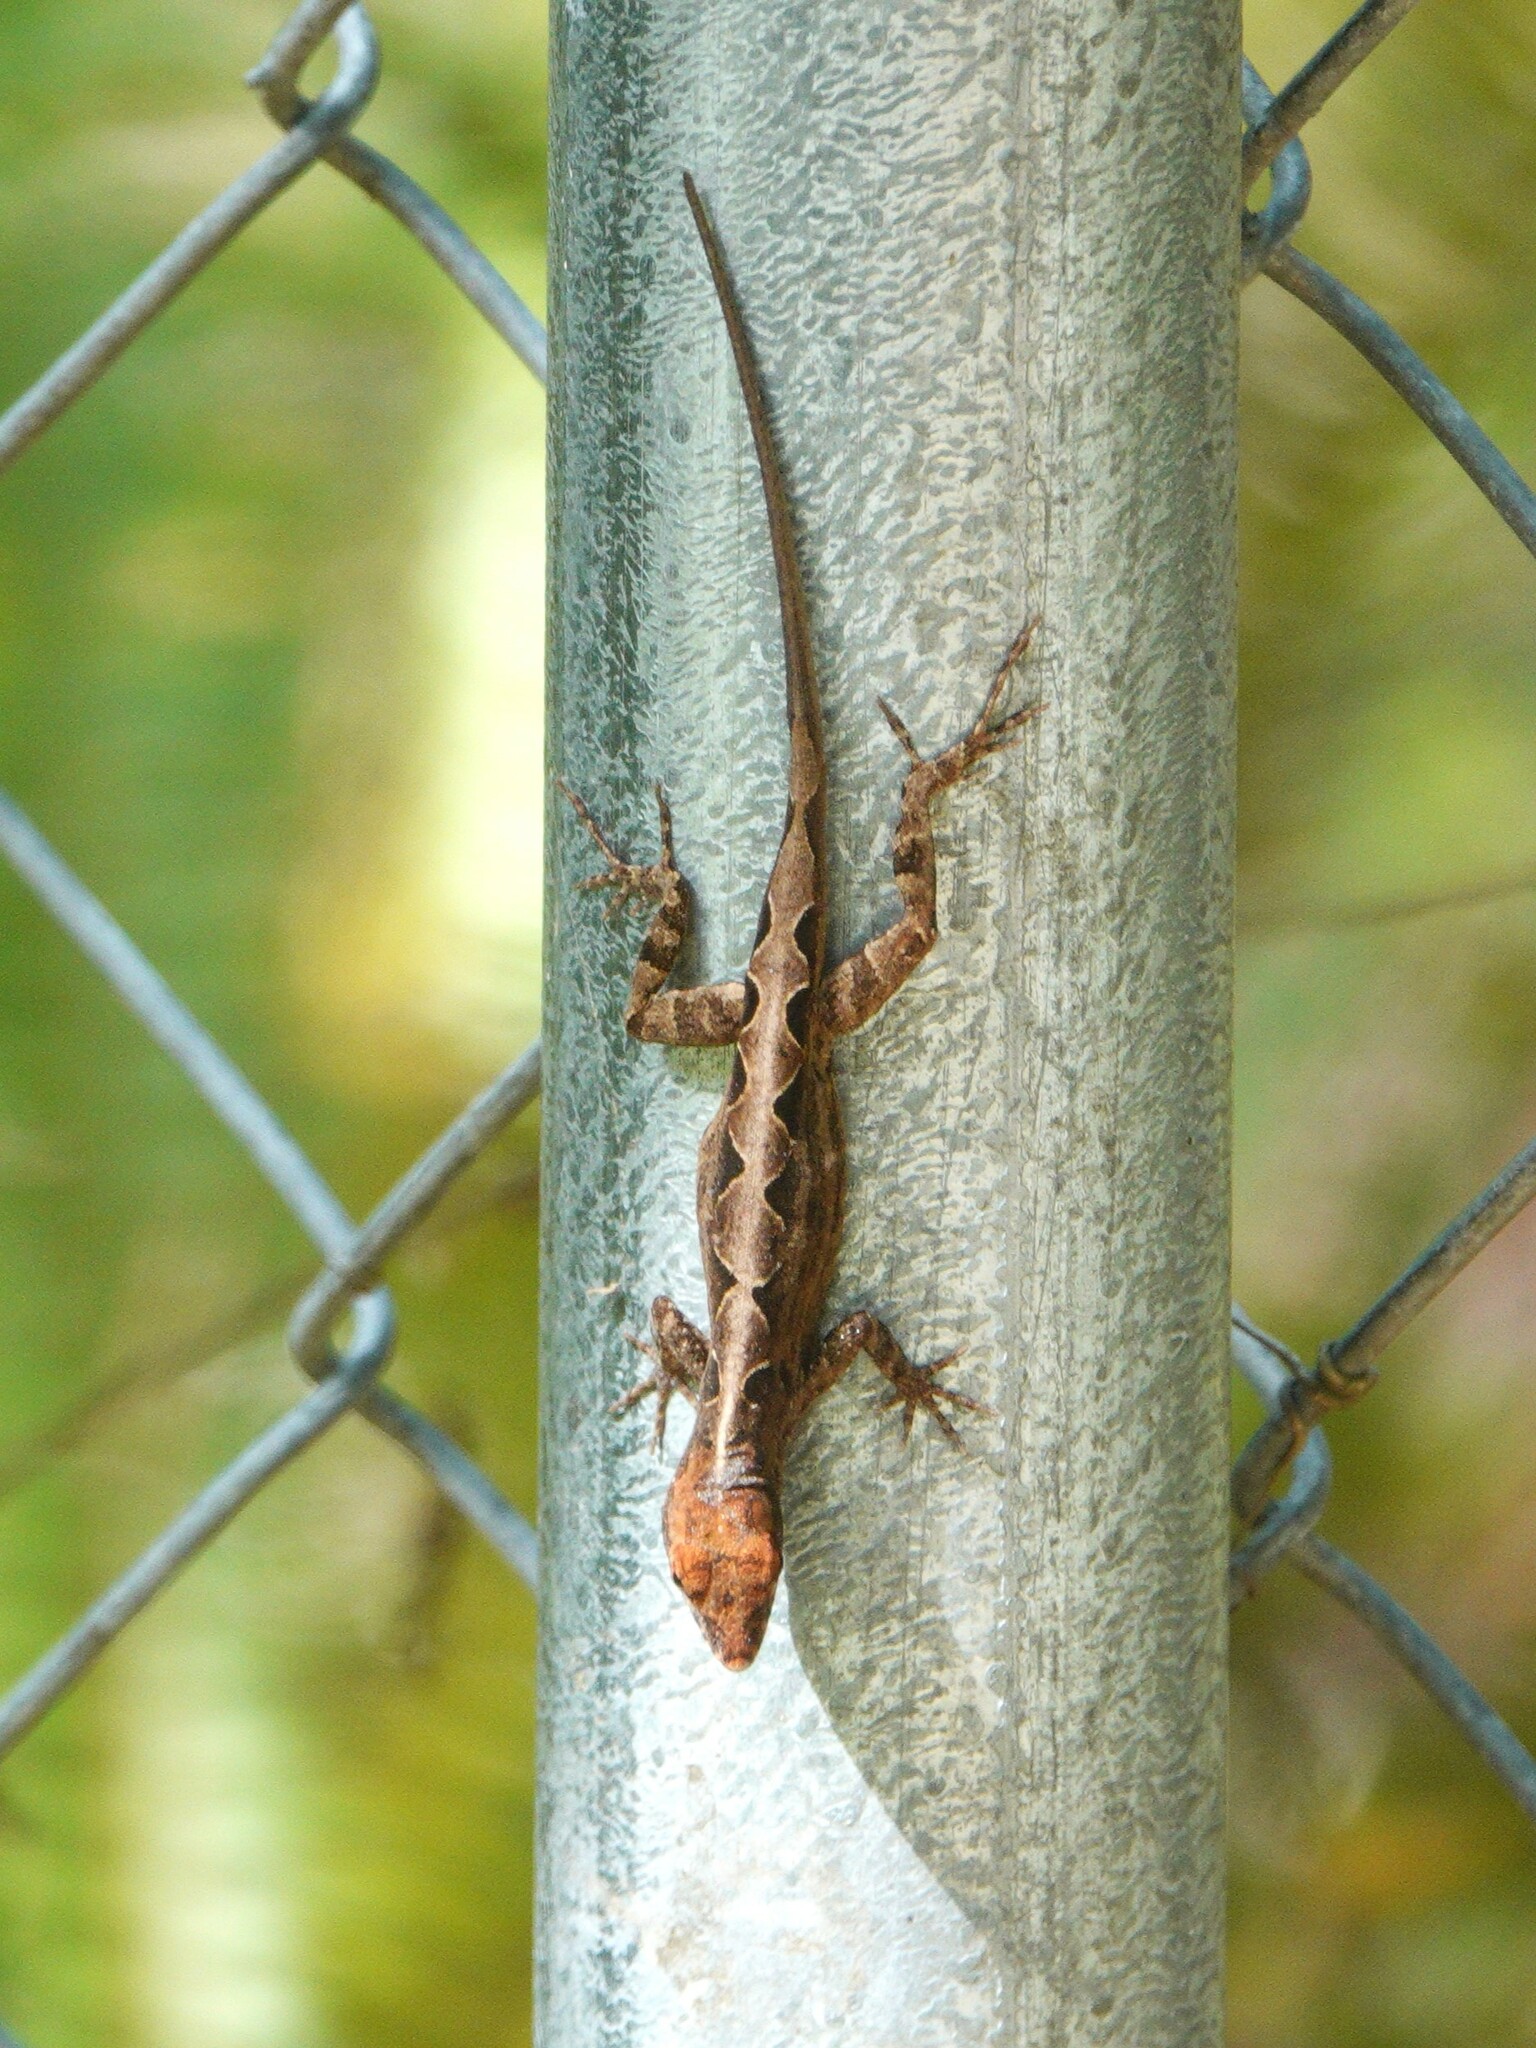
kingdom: Animalia
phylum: Chordata
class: Squamata
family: Dactyloidae
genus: Anolis
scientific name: Anolis sagrei
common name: Brown anole
